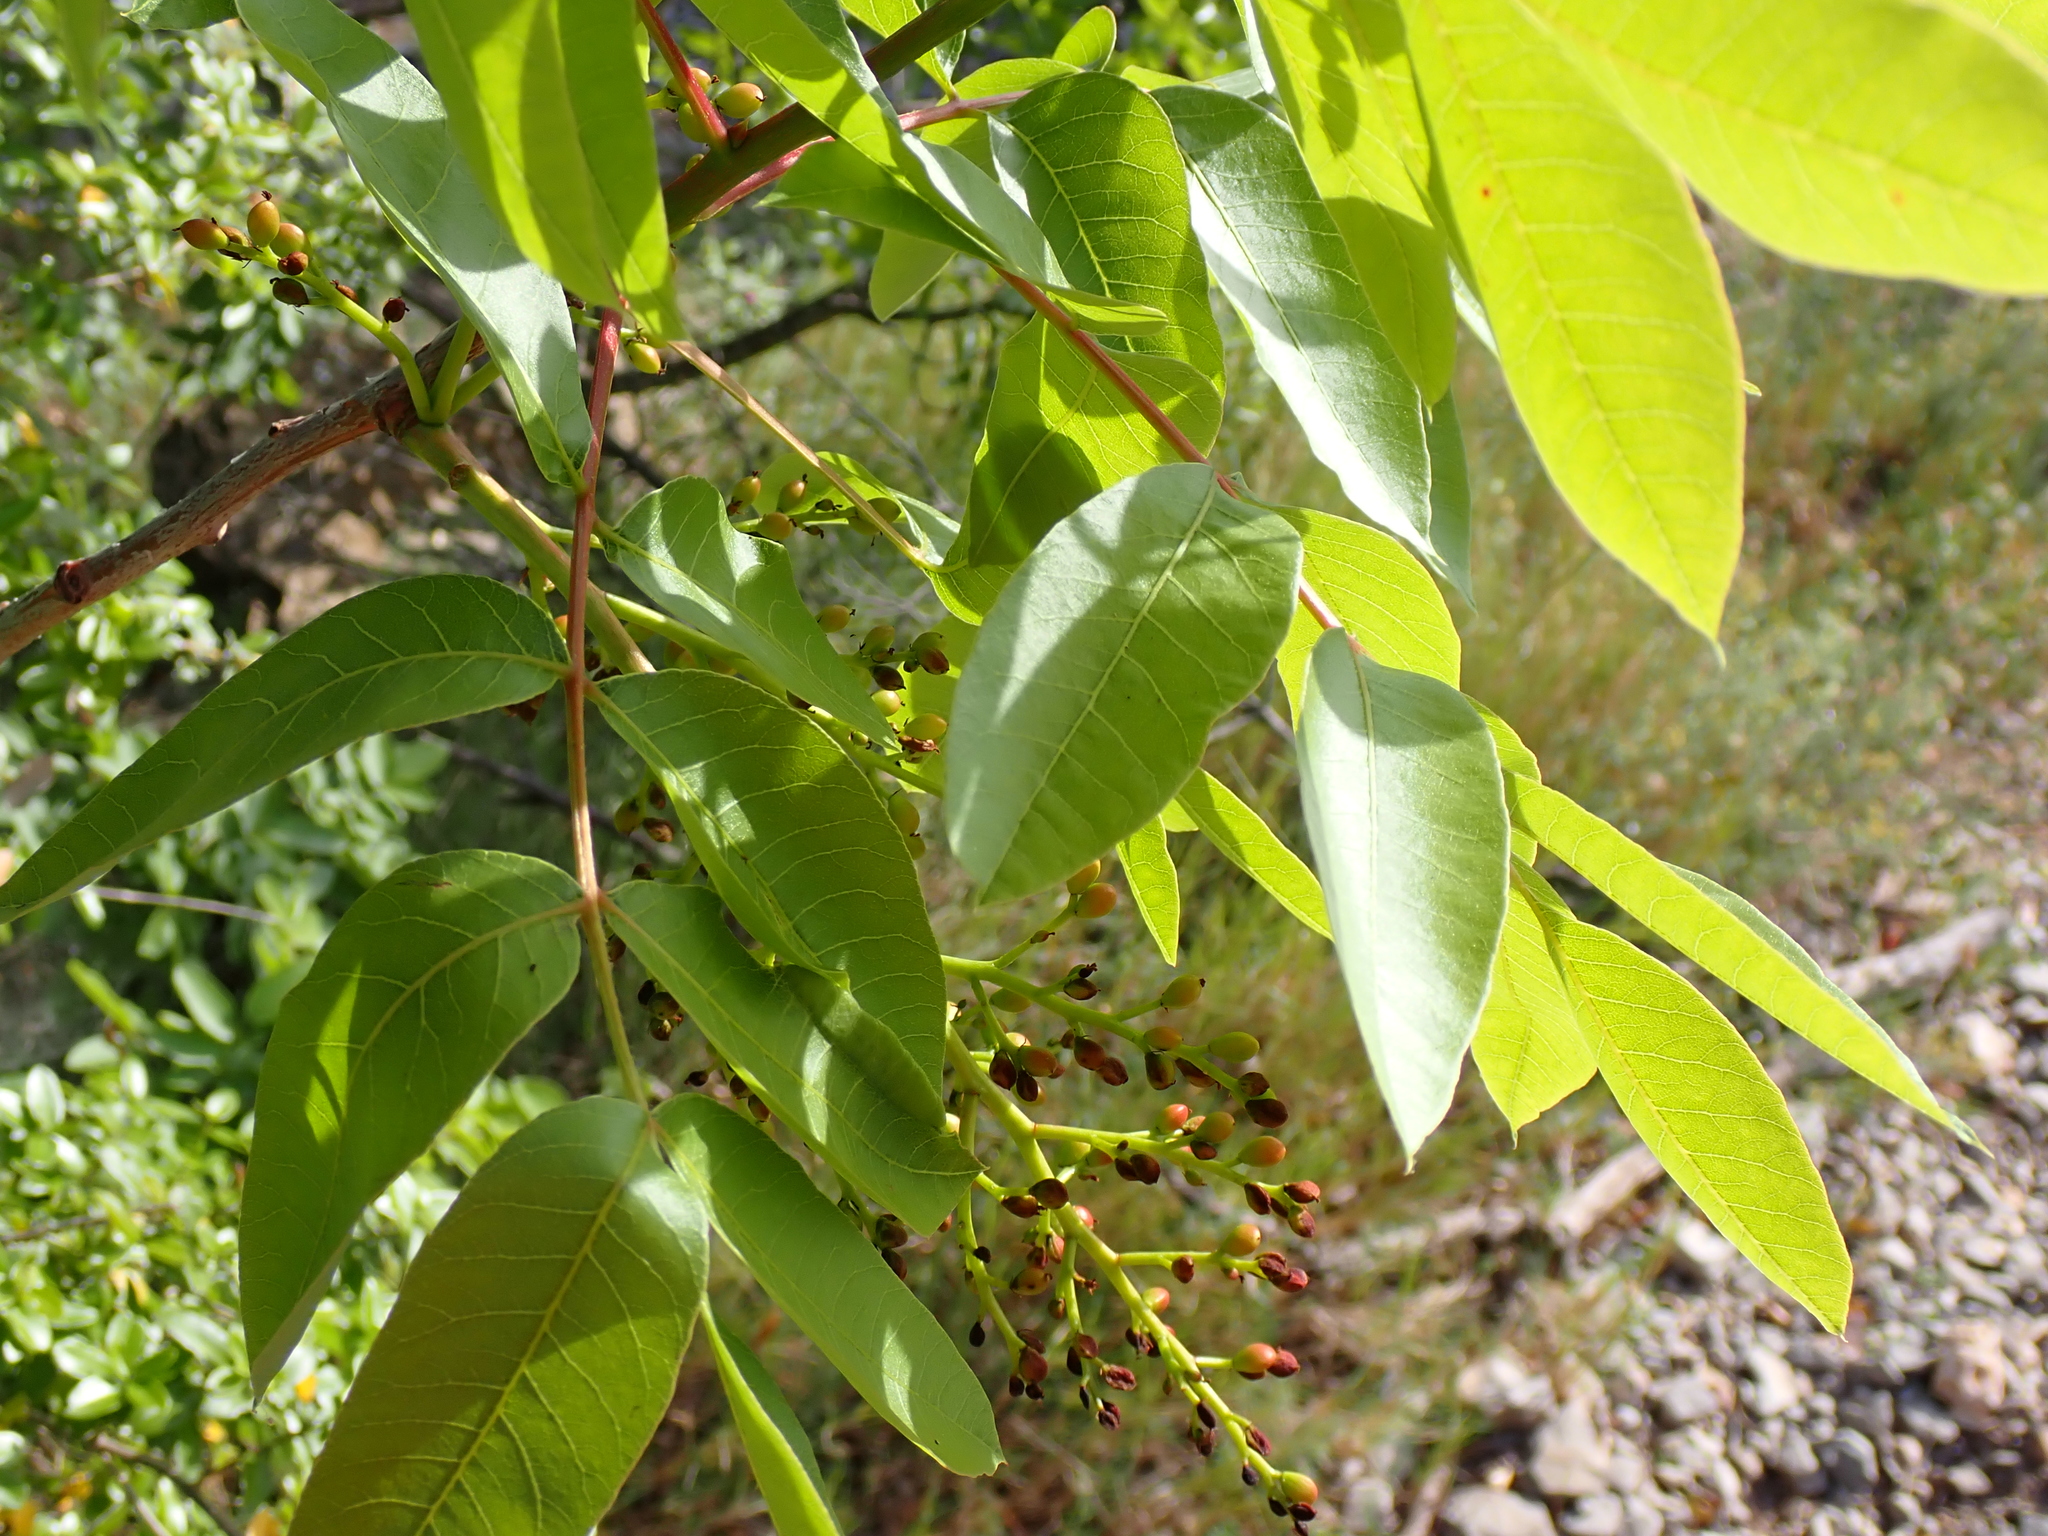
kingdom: Plantae
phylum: Tracheophyta
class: Magnoliopsida
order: Sapindales
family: Anacardiaceae
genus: Pistacia
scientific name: Pistacia terebinthus
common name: Terebinth
